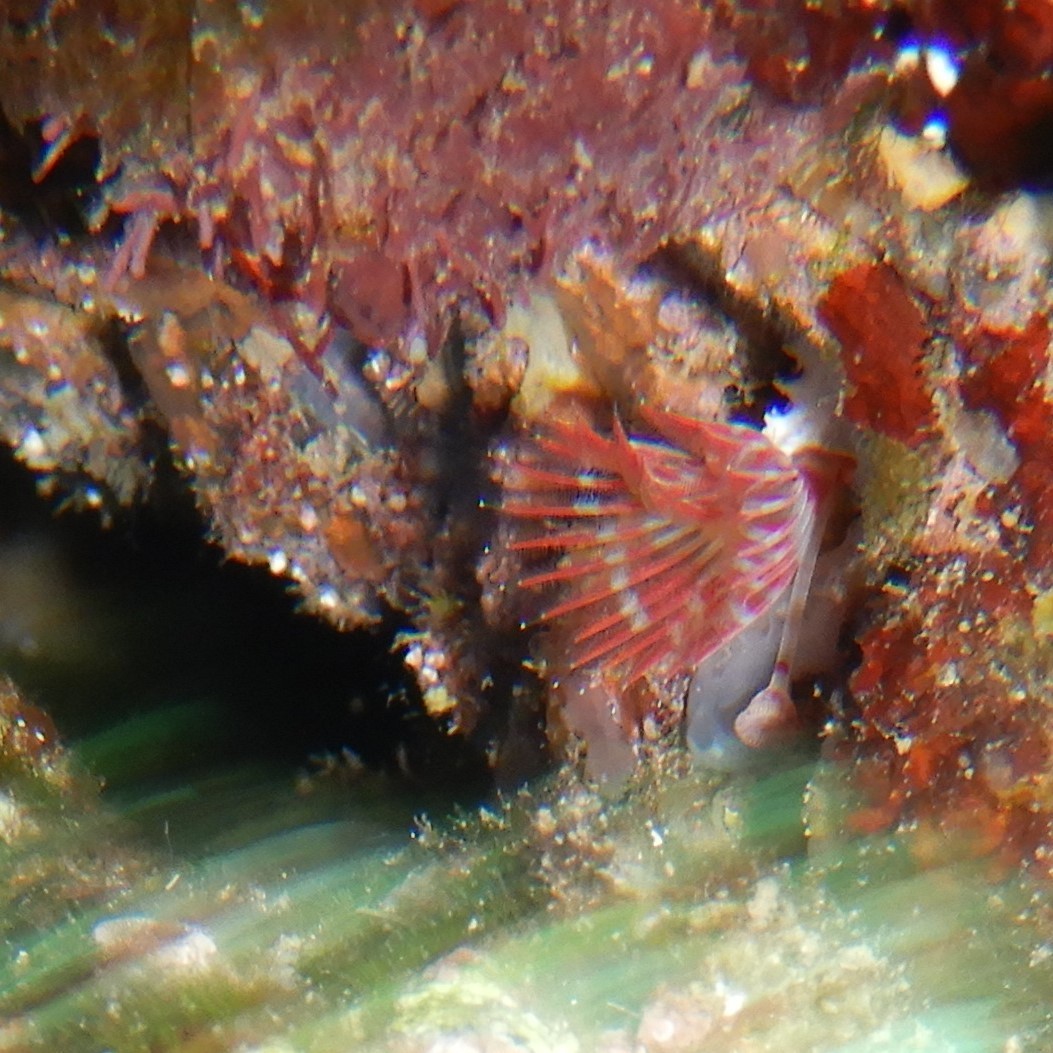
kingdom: Animalia
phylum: Annelida
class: Polychaeta
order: Sabellida
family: Serpulidae
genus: Serpula
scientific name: Serpula vermicularis
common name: Calcareous tubeworm
